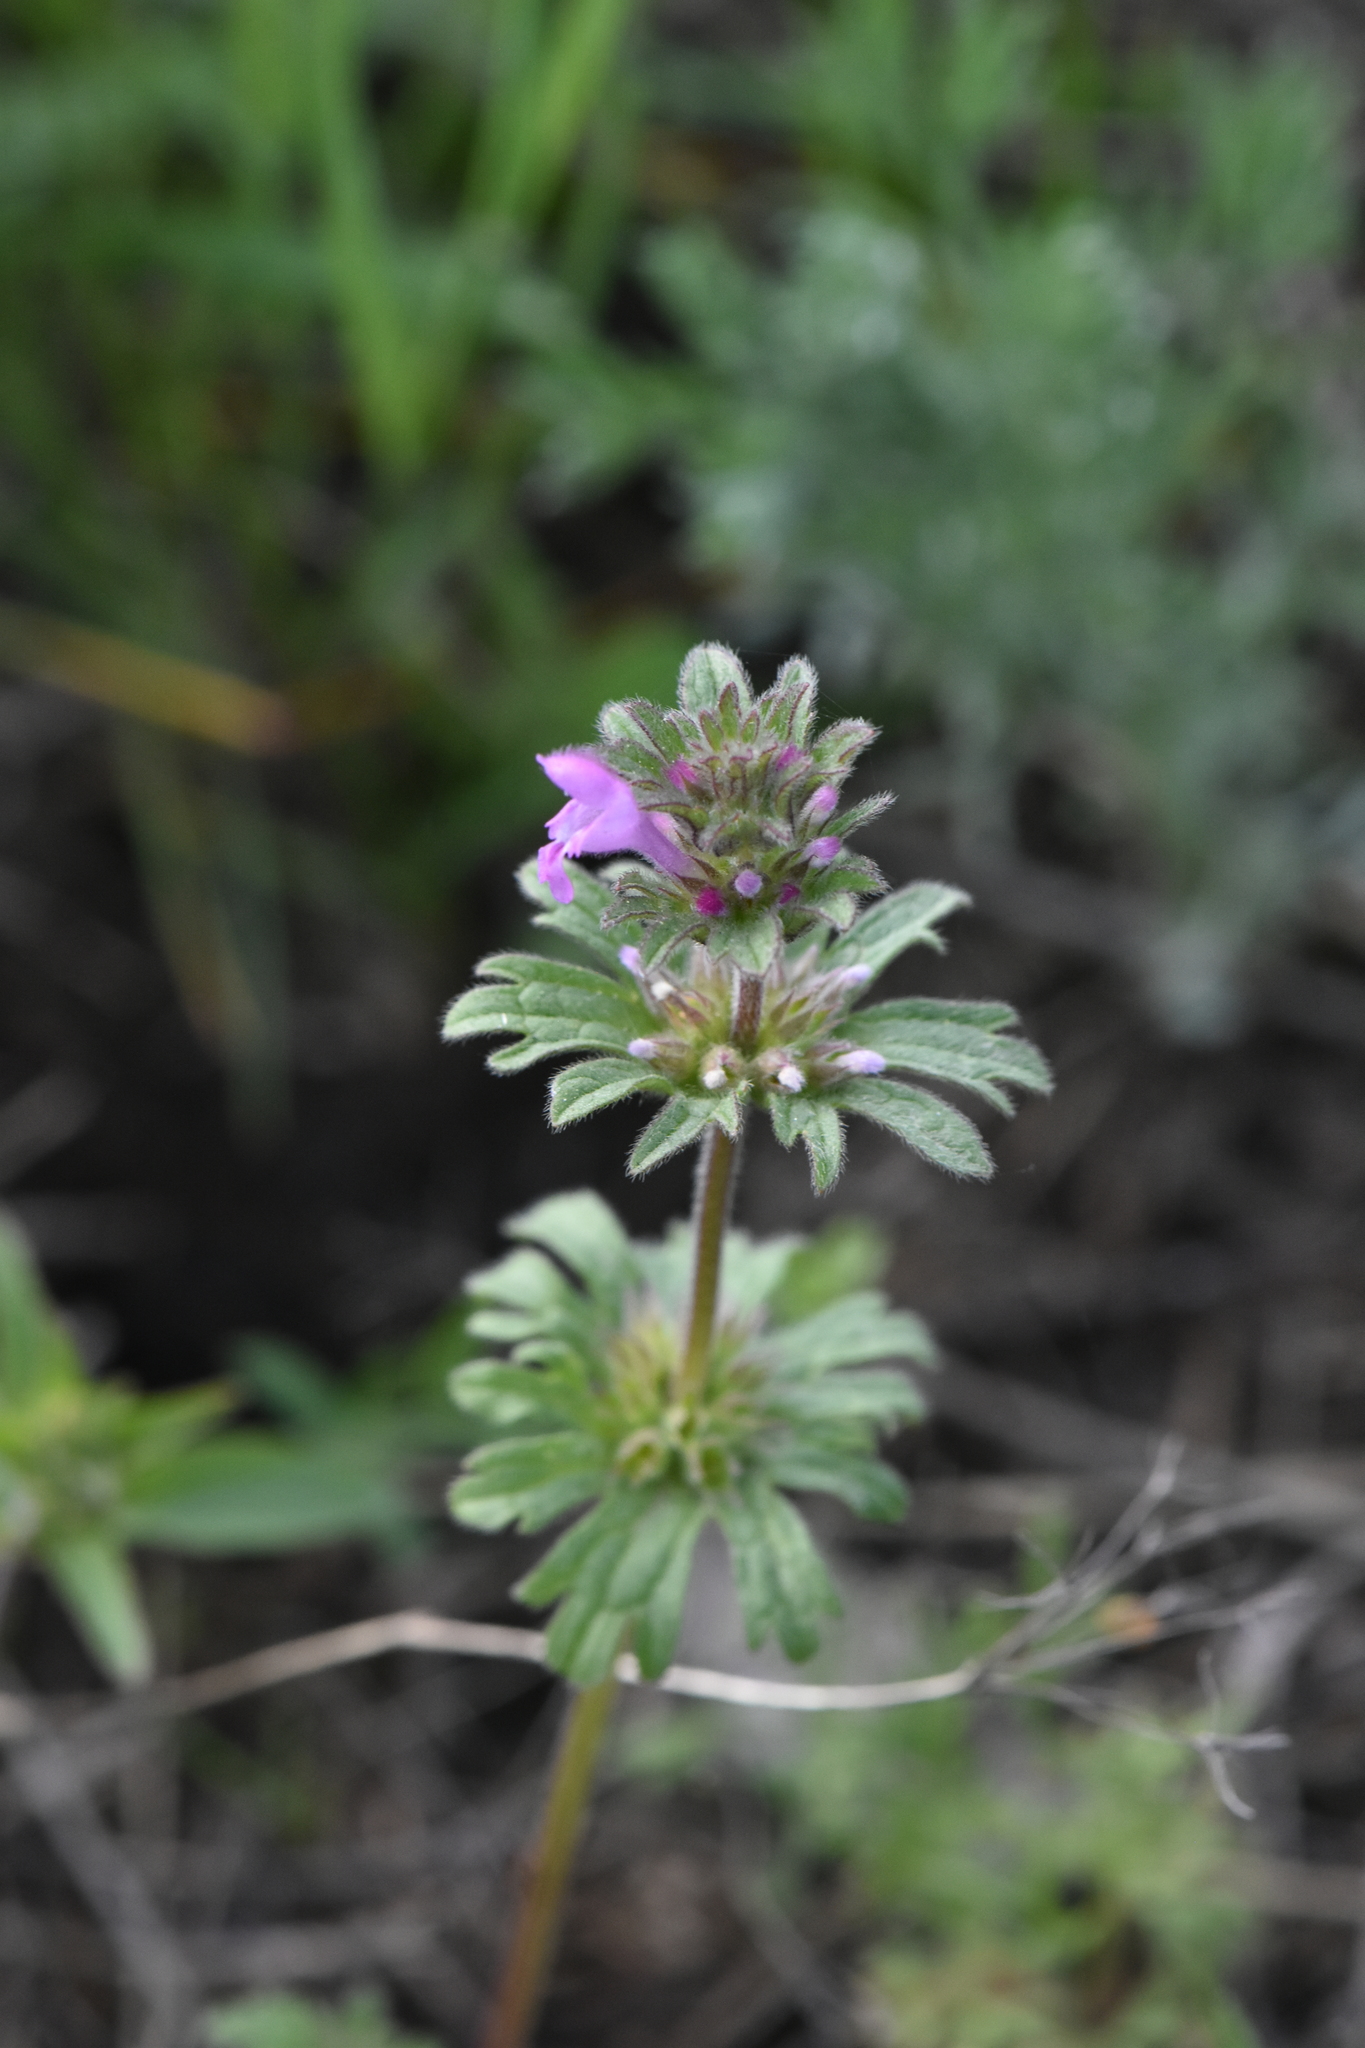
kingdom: Plantae
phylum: Tracheophyta
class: Magnoliopsida
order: Lamiales
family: Lamiaceae
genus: Lamium
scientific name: Lamium amplexicaule
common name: Henbit dead-nettle
